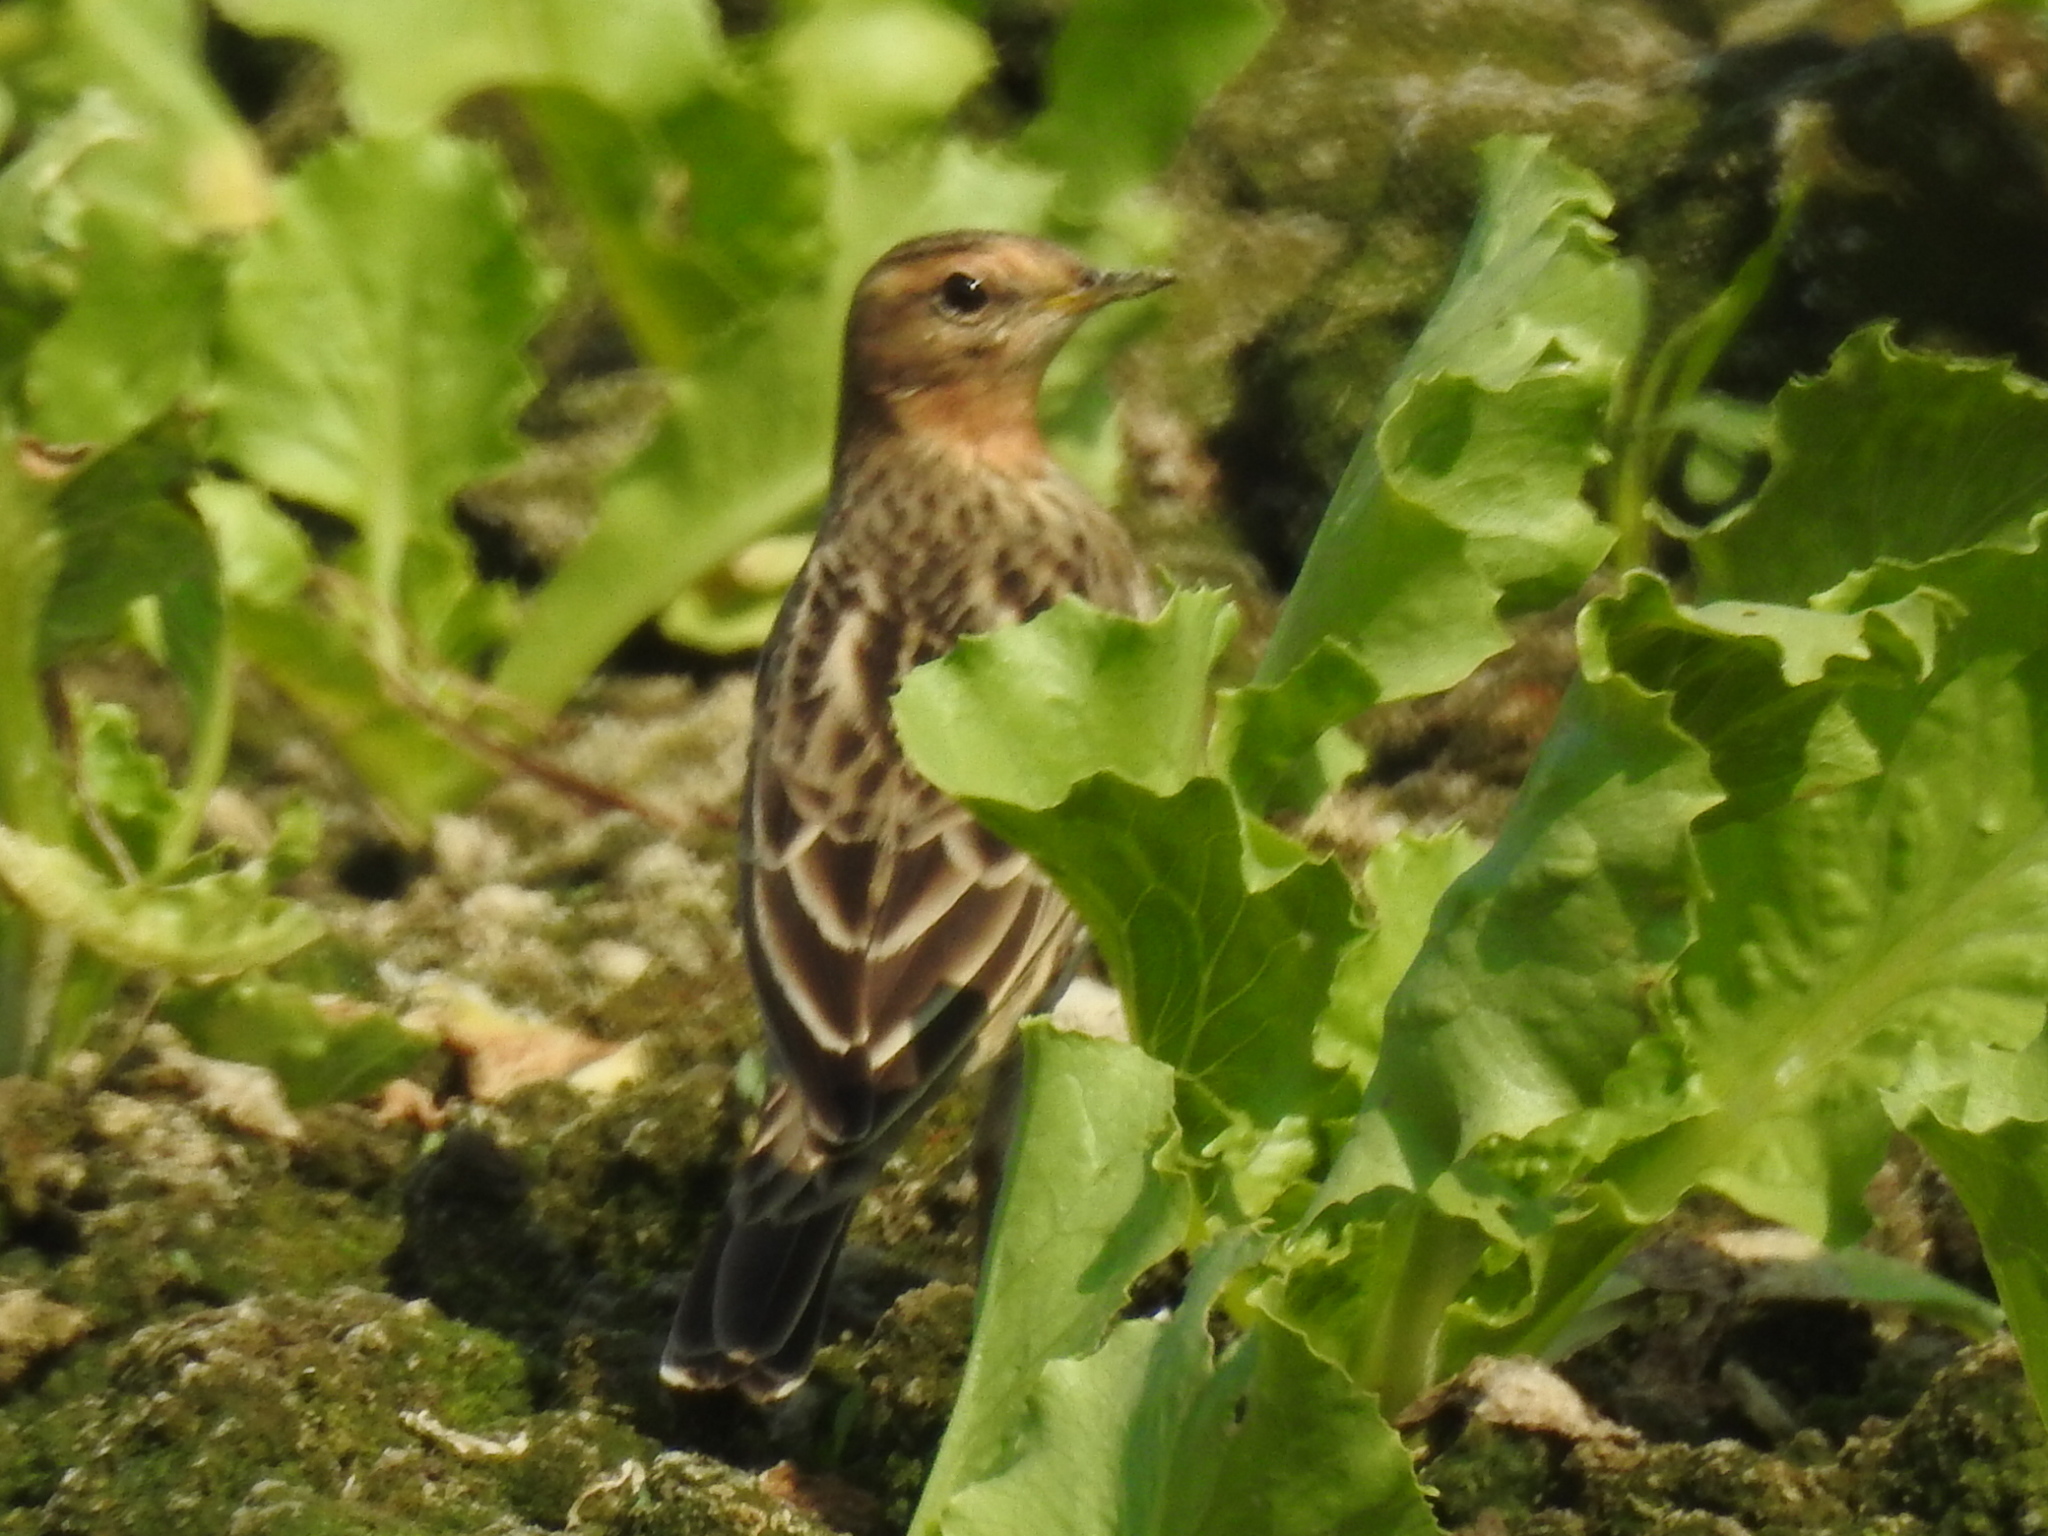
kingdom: Animalia
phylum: Chordata
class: Aves
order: Passeriformes
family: Motacillidae
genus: Anthus
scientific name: Anthus cervinus
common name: Red-throated pipit
